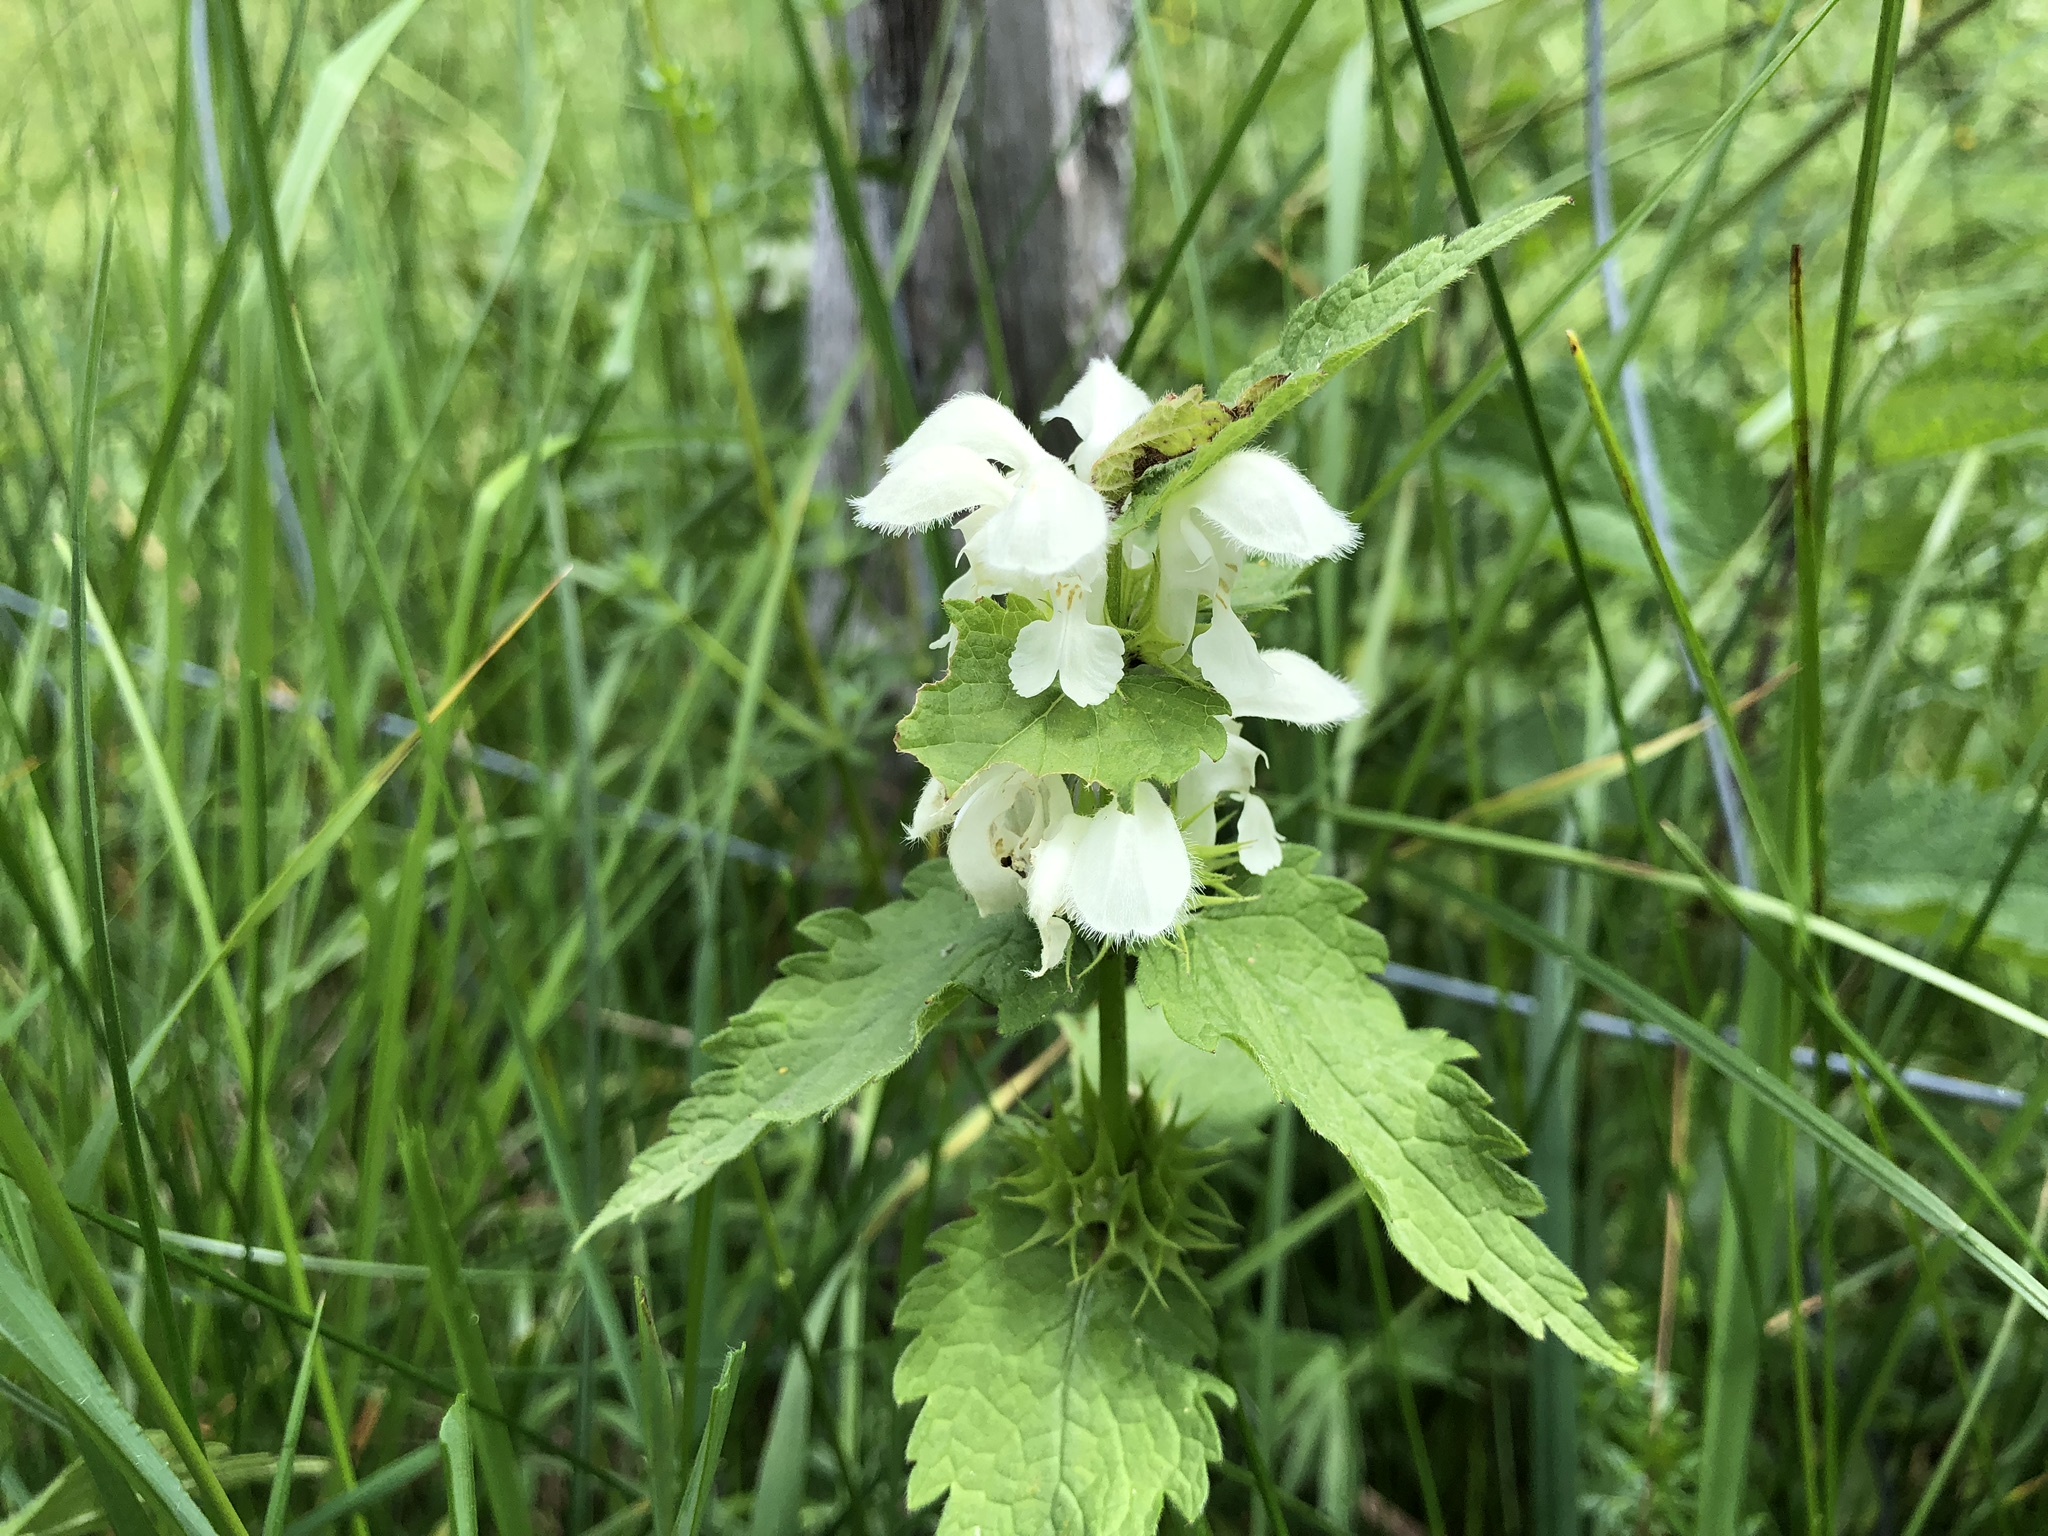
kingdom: Plantae
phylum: Tracheophyta
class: Magnoliopsida
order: Lamiales
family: Lamiaceae
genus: Lamium
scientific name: Lamium album
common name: White dead-nettle
